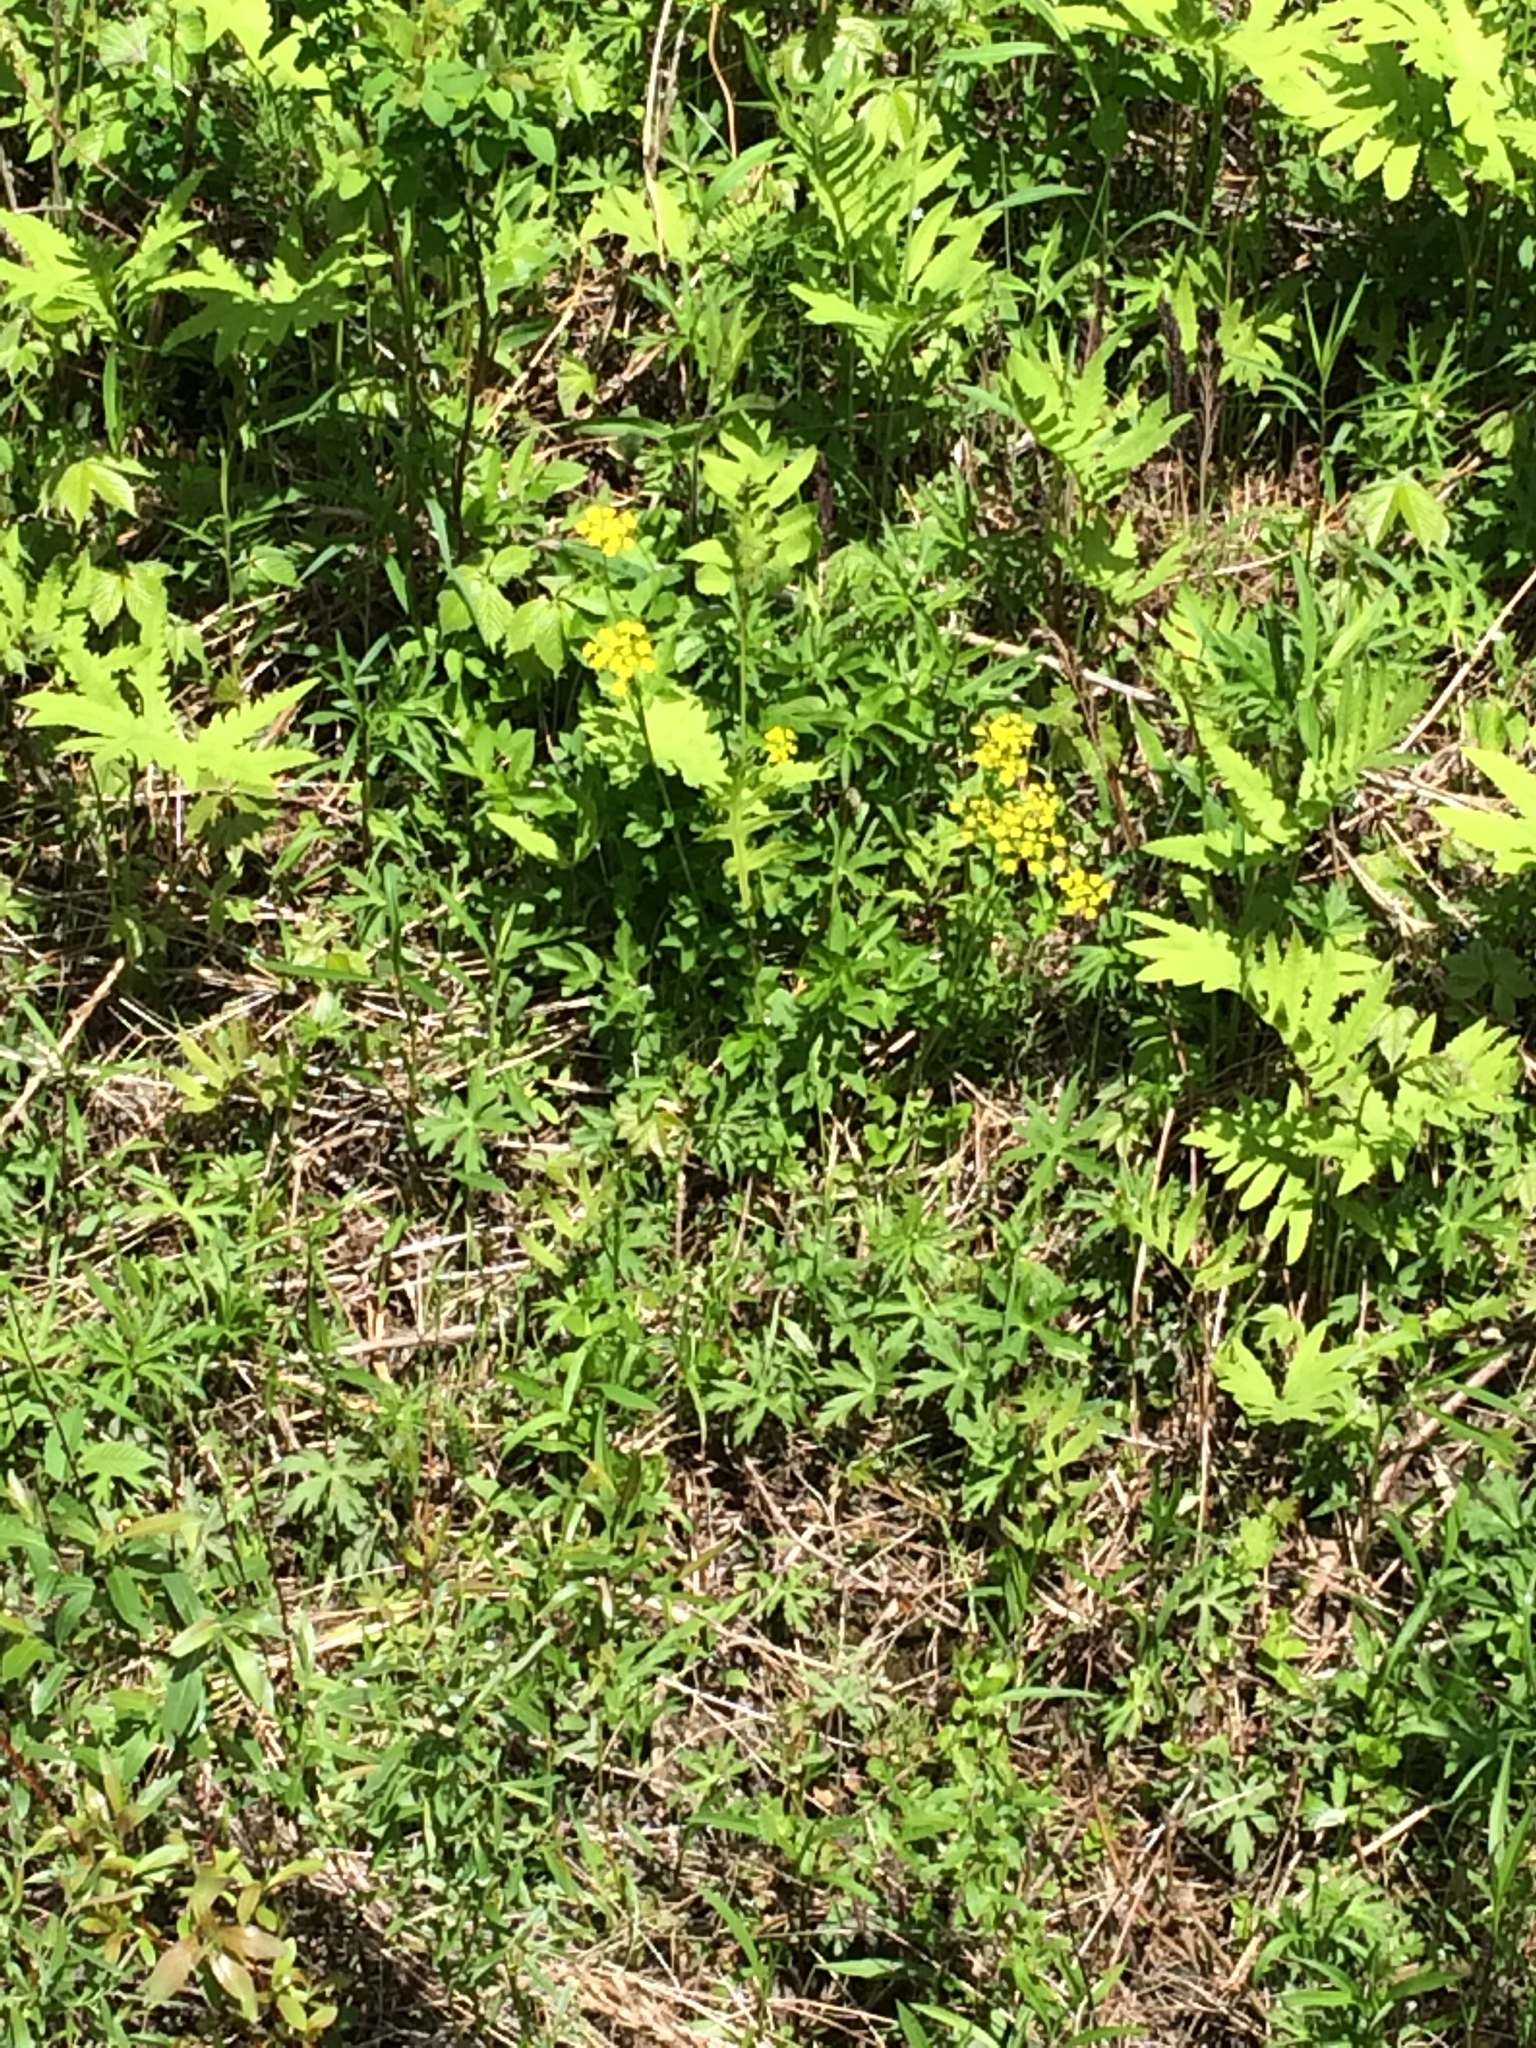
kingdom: Plantae
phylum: Tracheophyta
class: Magnoliopsida
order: Apiales
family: Apiaceae
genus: Zizia
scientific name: Zizia aurea
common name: Golden alexanders
